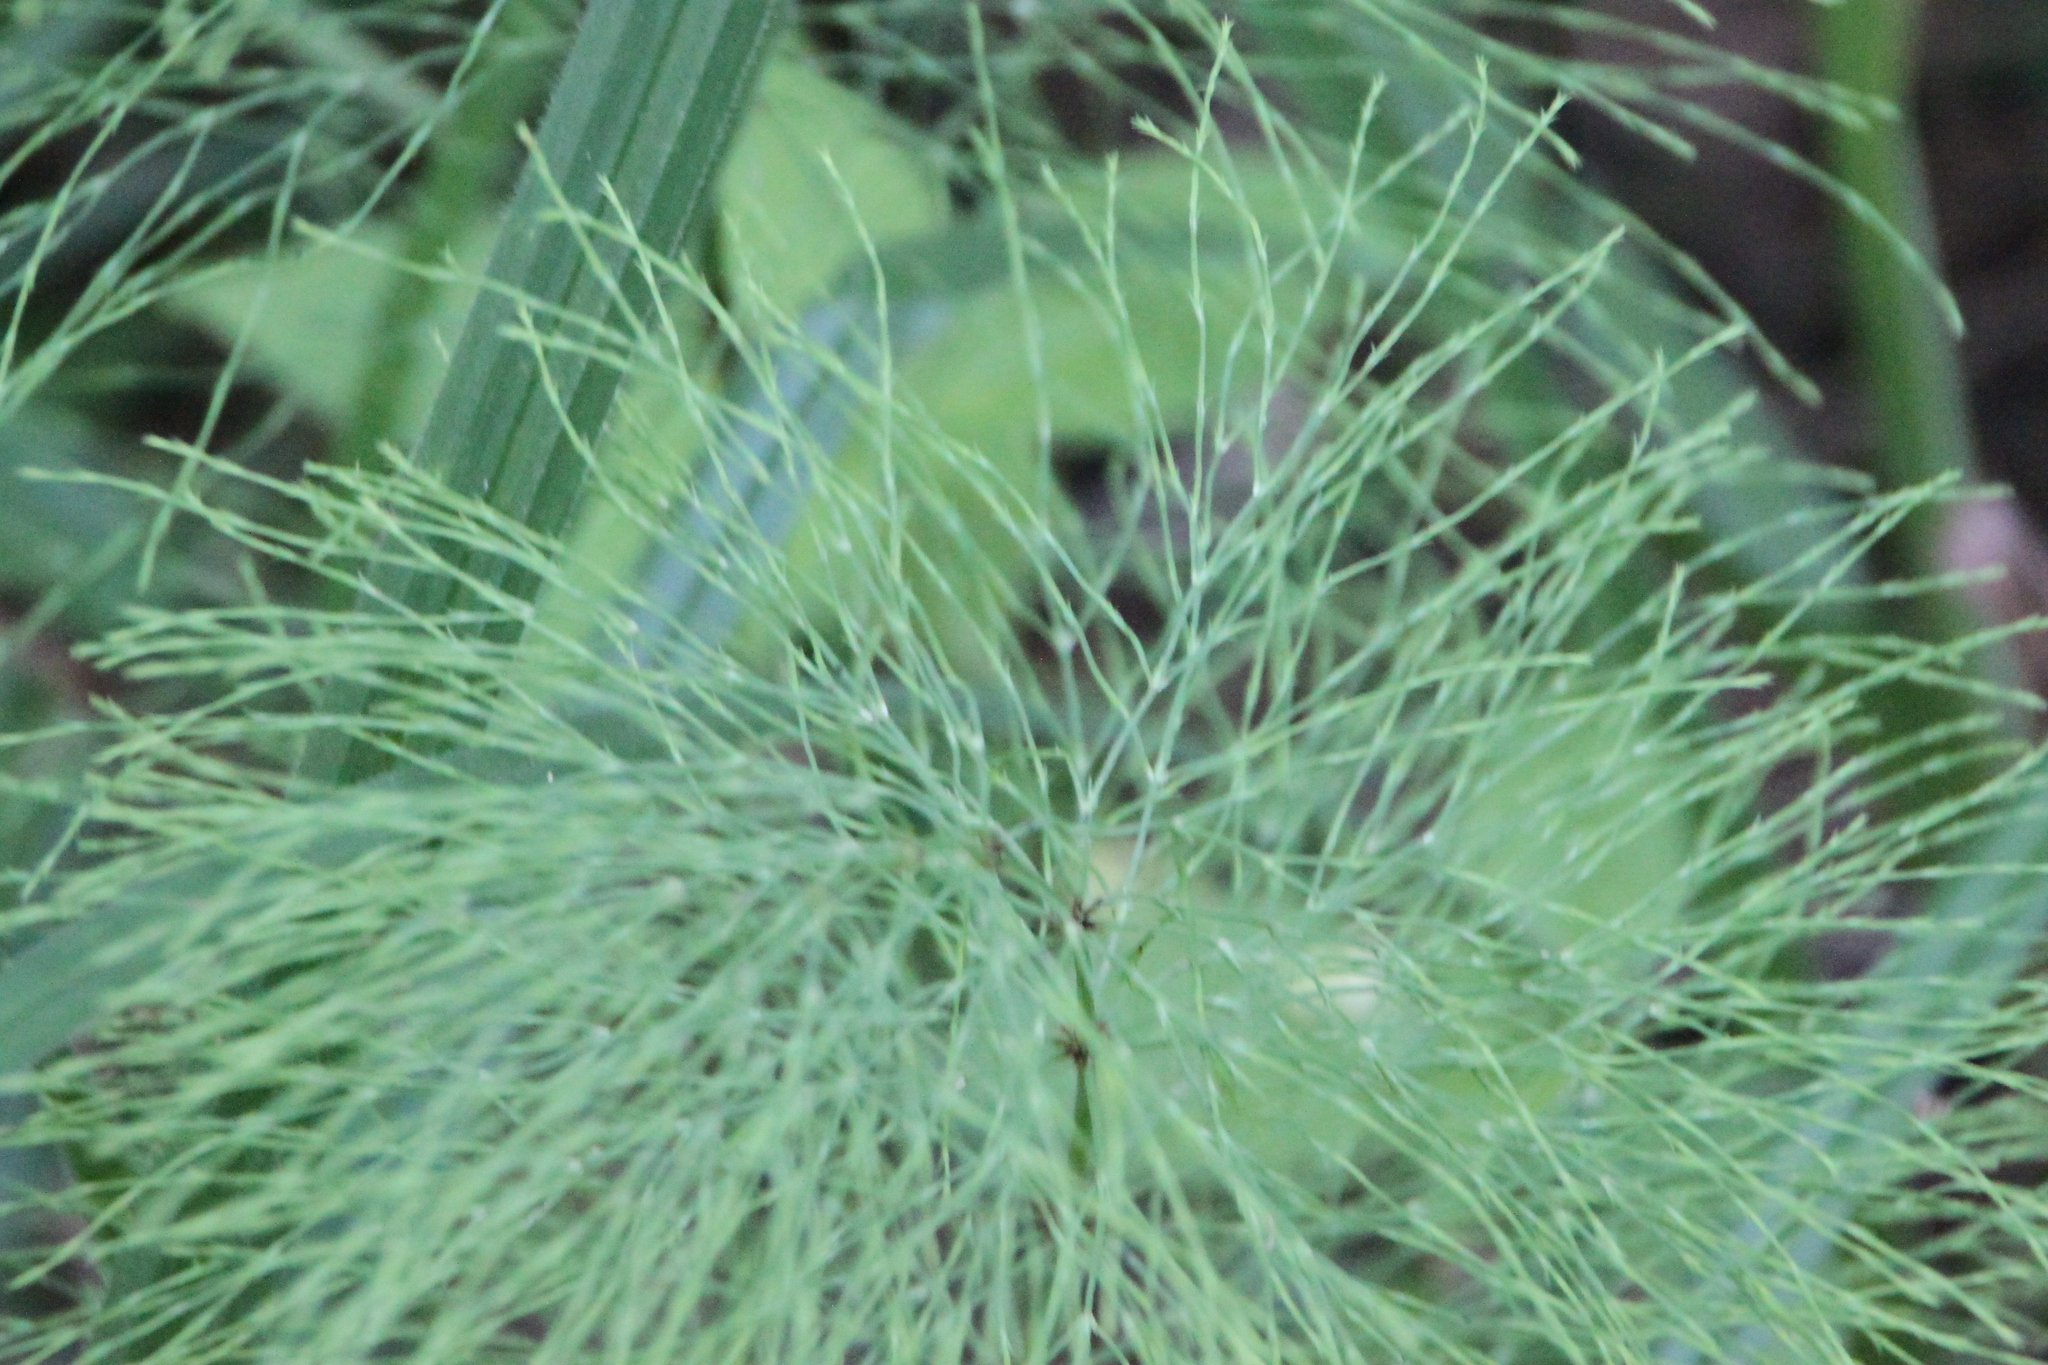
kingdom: Plantae
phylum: Tracheophyta
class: Polypodiopsida
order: Equisetales
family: Equisetaceae
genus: Equisetum
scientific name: Equisetum sylvaticum
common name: Wood horsetail
